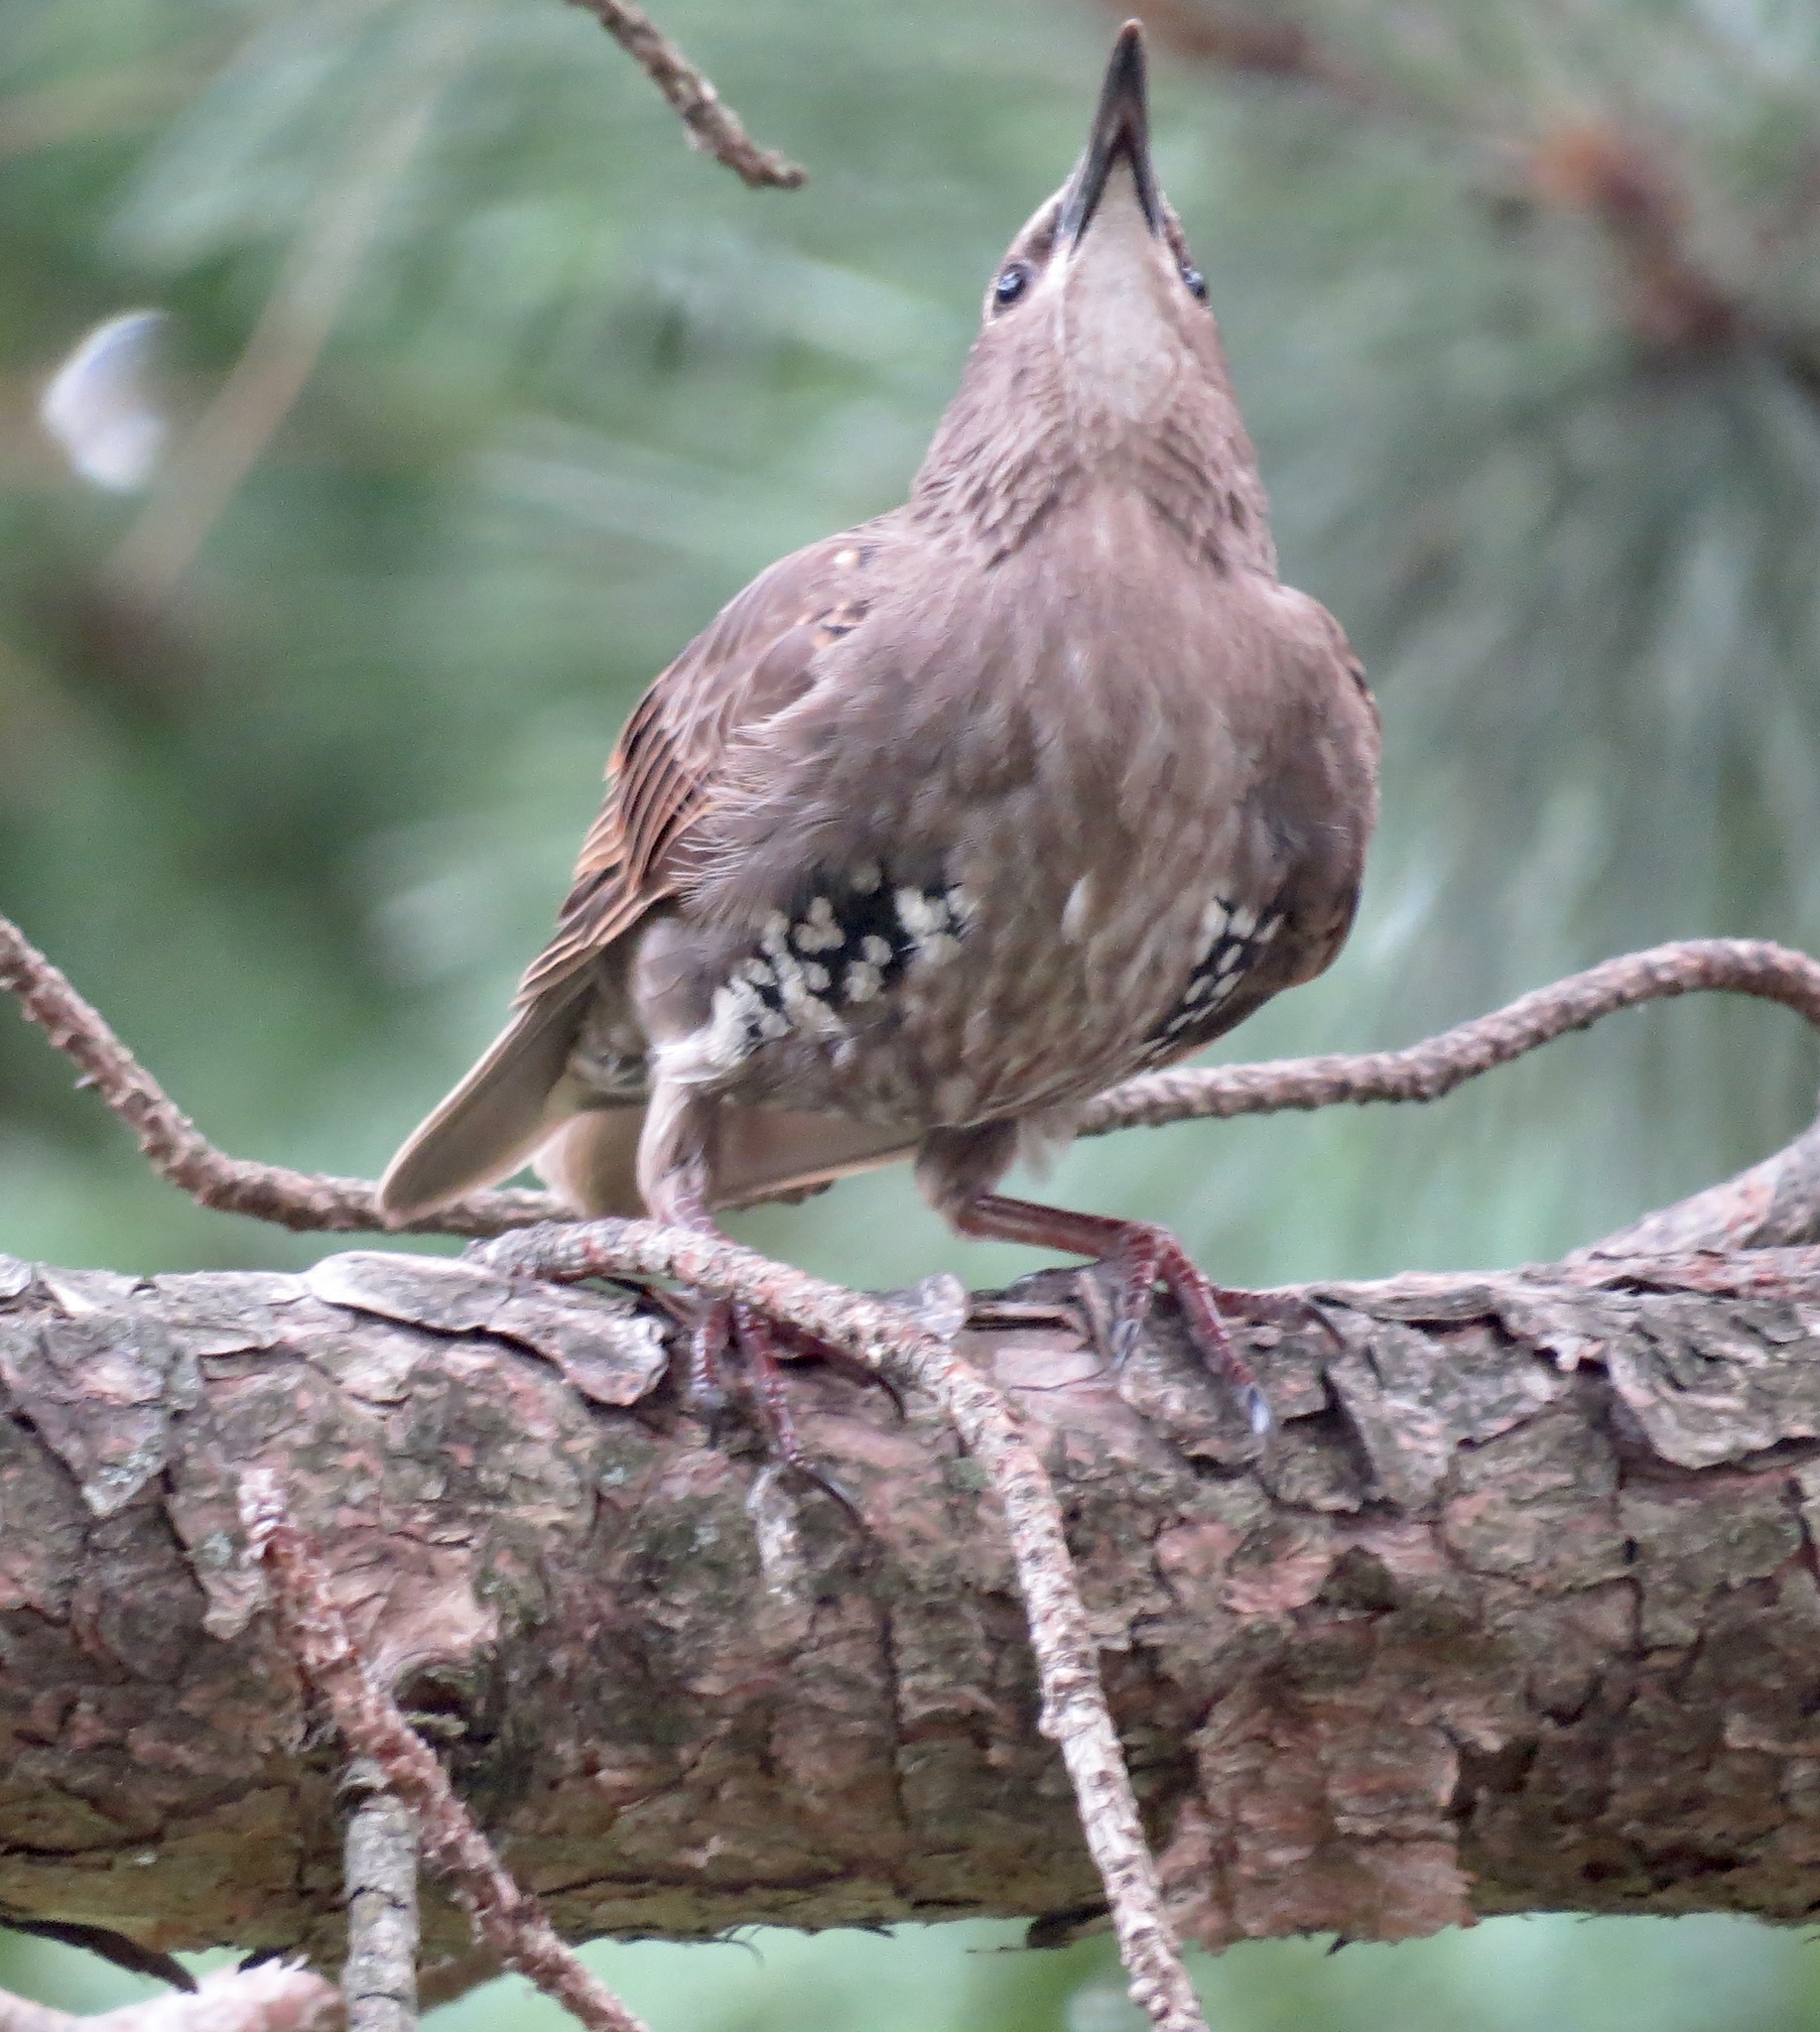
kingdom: Animalia
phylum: Chordata
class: Aves
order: Passeriformes
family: Sturnidae
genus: Sturnus
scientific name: Sturnus vulgaris
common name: Common starling
